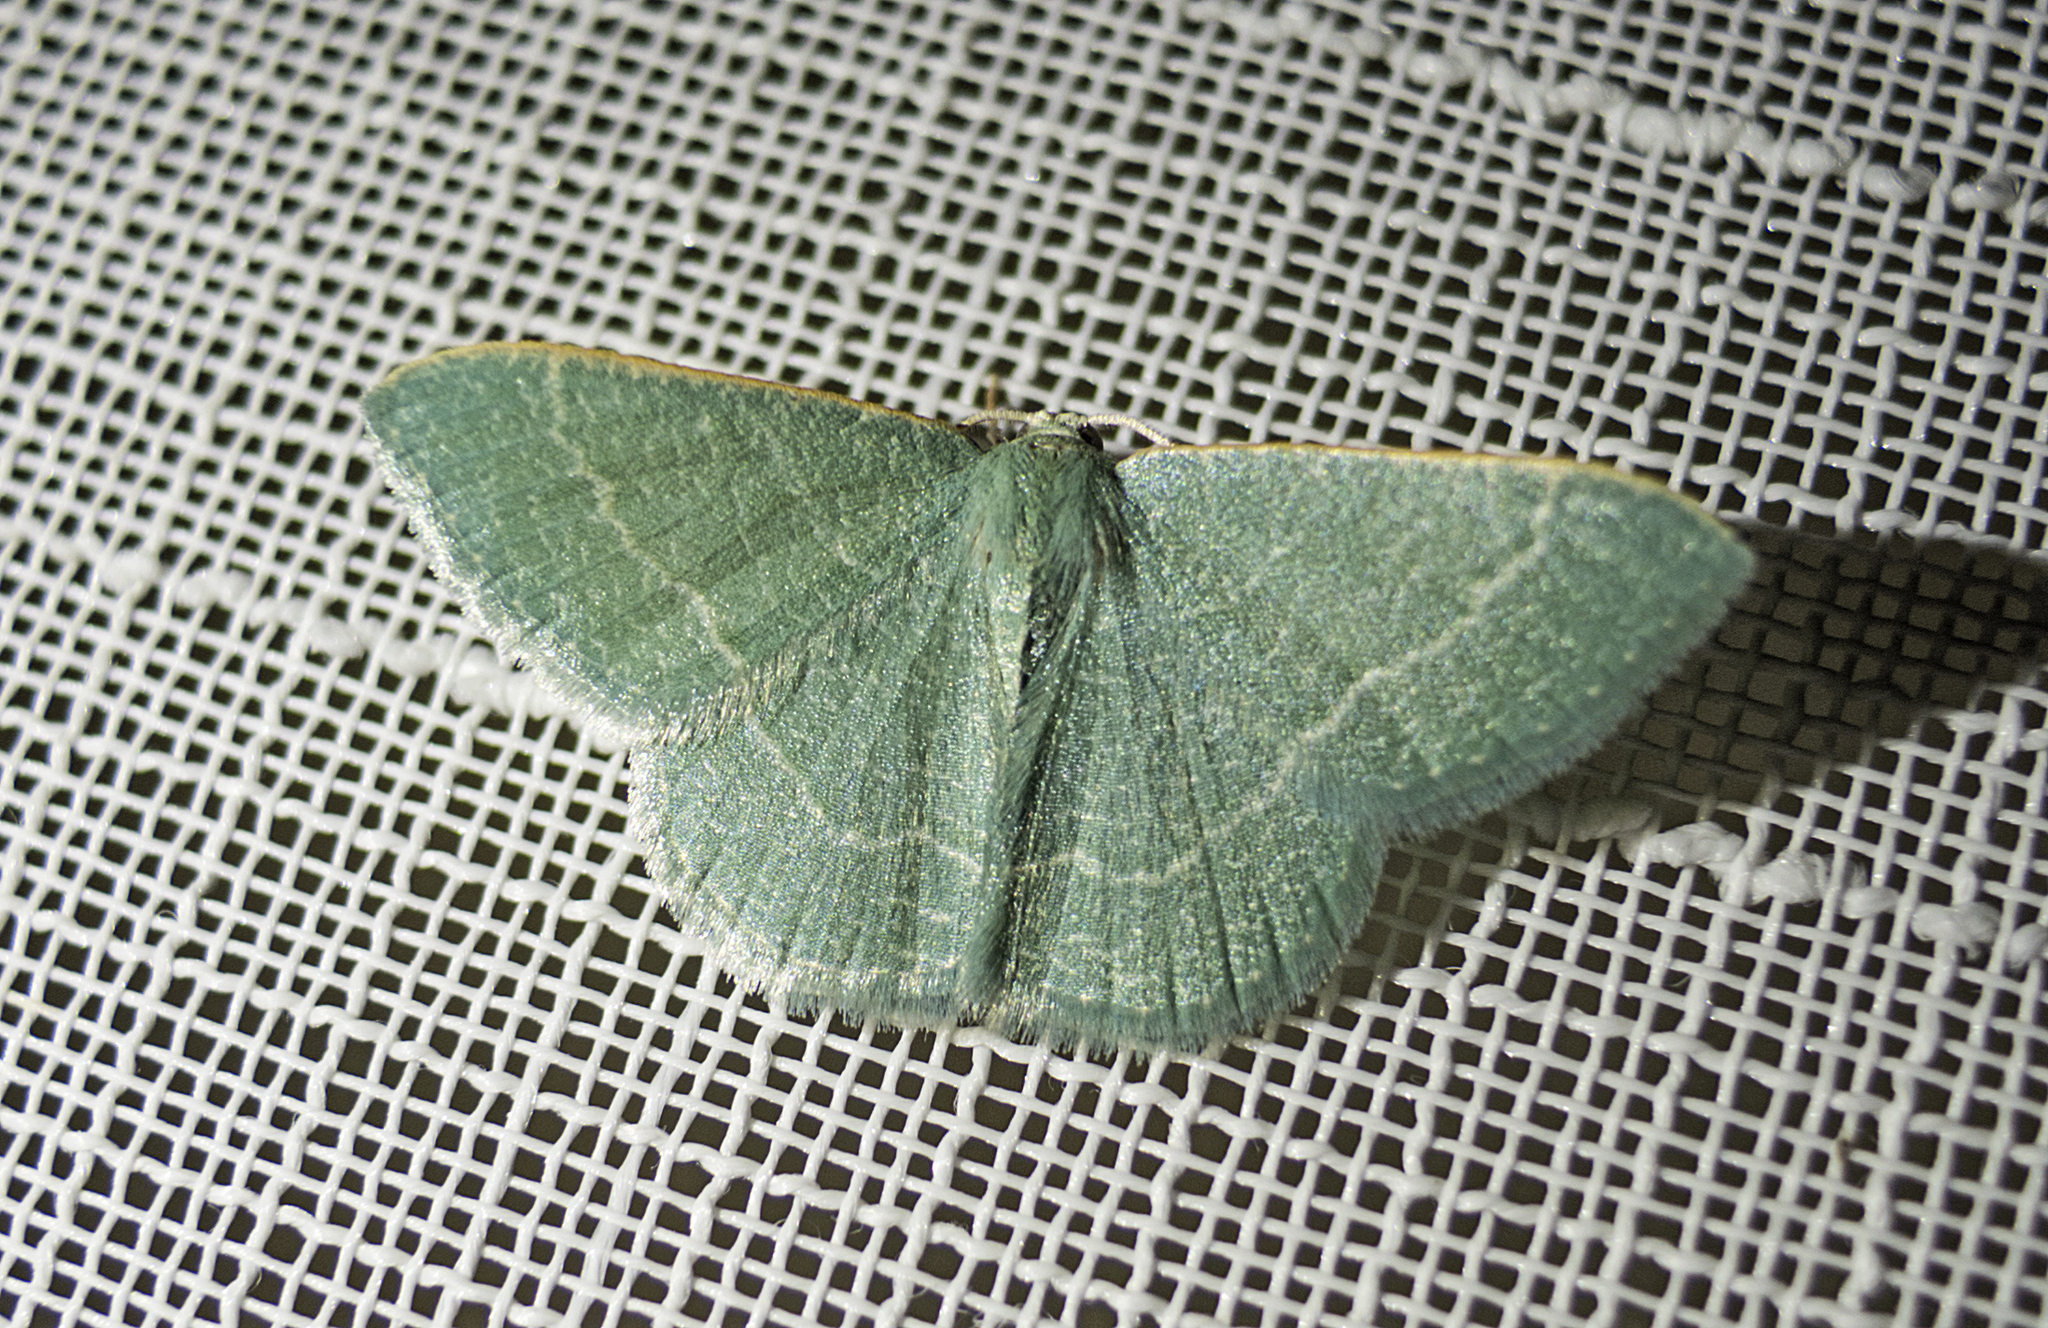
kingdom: Animalia
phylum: Arthropoda
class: Insecta
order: Lepidoptera
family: Geometridae
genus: Chlorissa
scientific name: Chlorissa etruscaria
